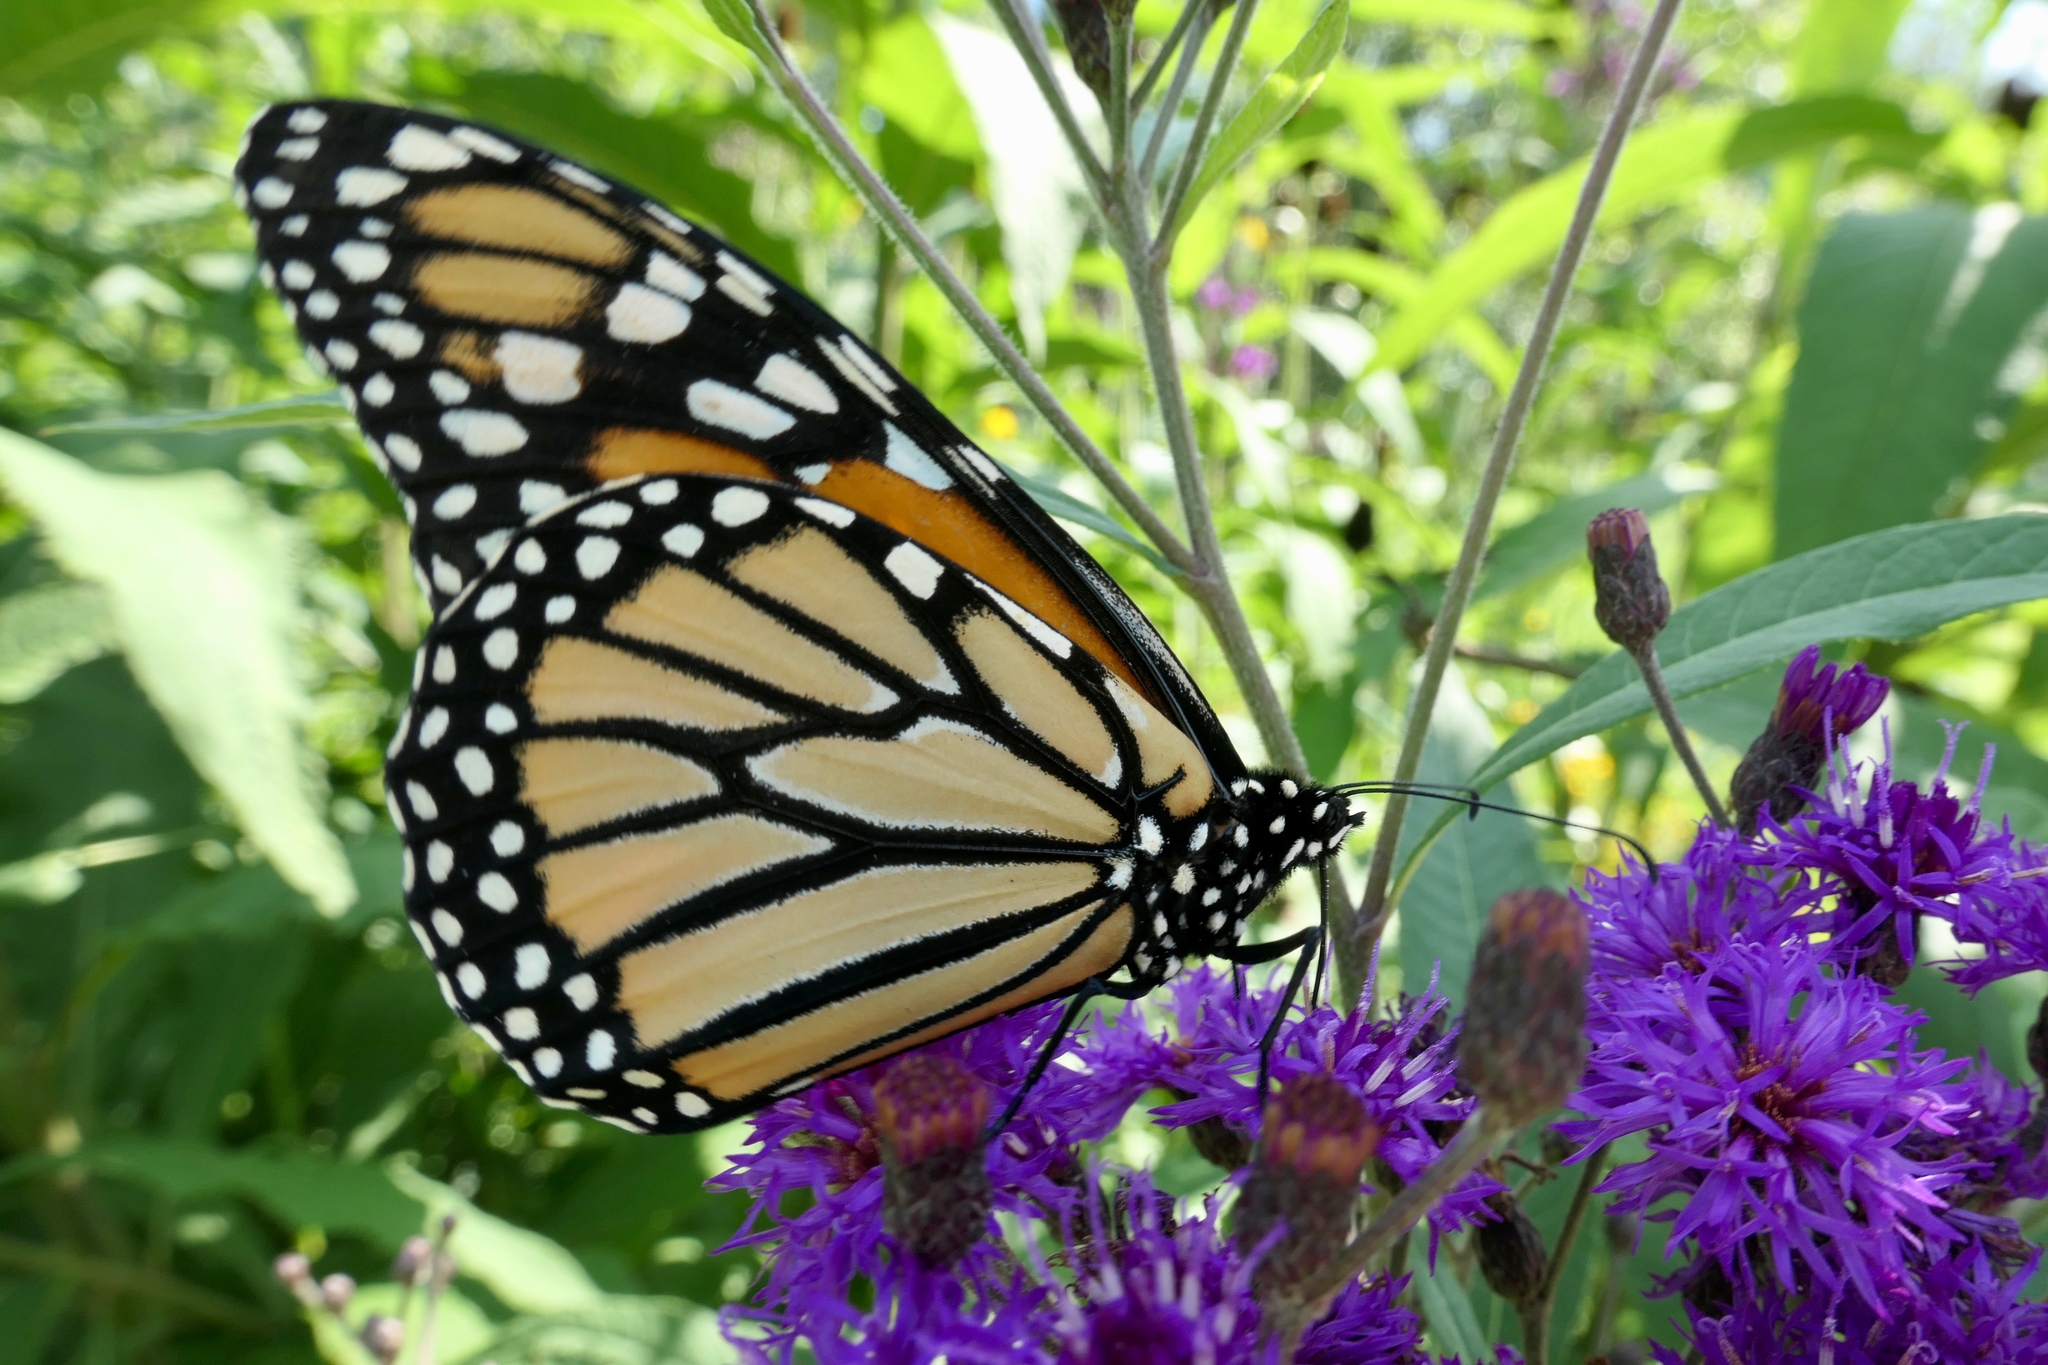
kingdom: Animalia
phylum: Arthropoda
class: Insecta
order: Lepidoptera
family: Nymphalidae
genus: Danaus
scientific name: Danaus plexippus
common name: Monarch
